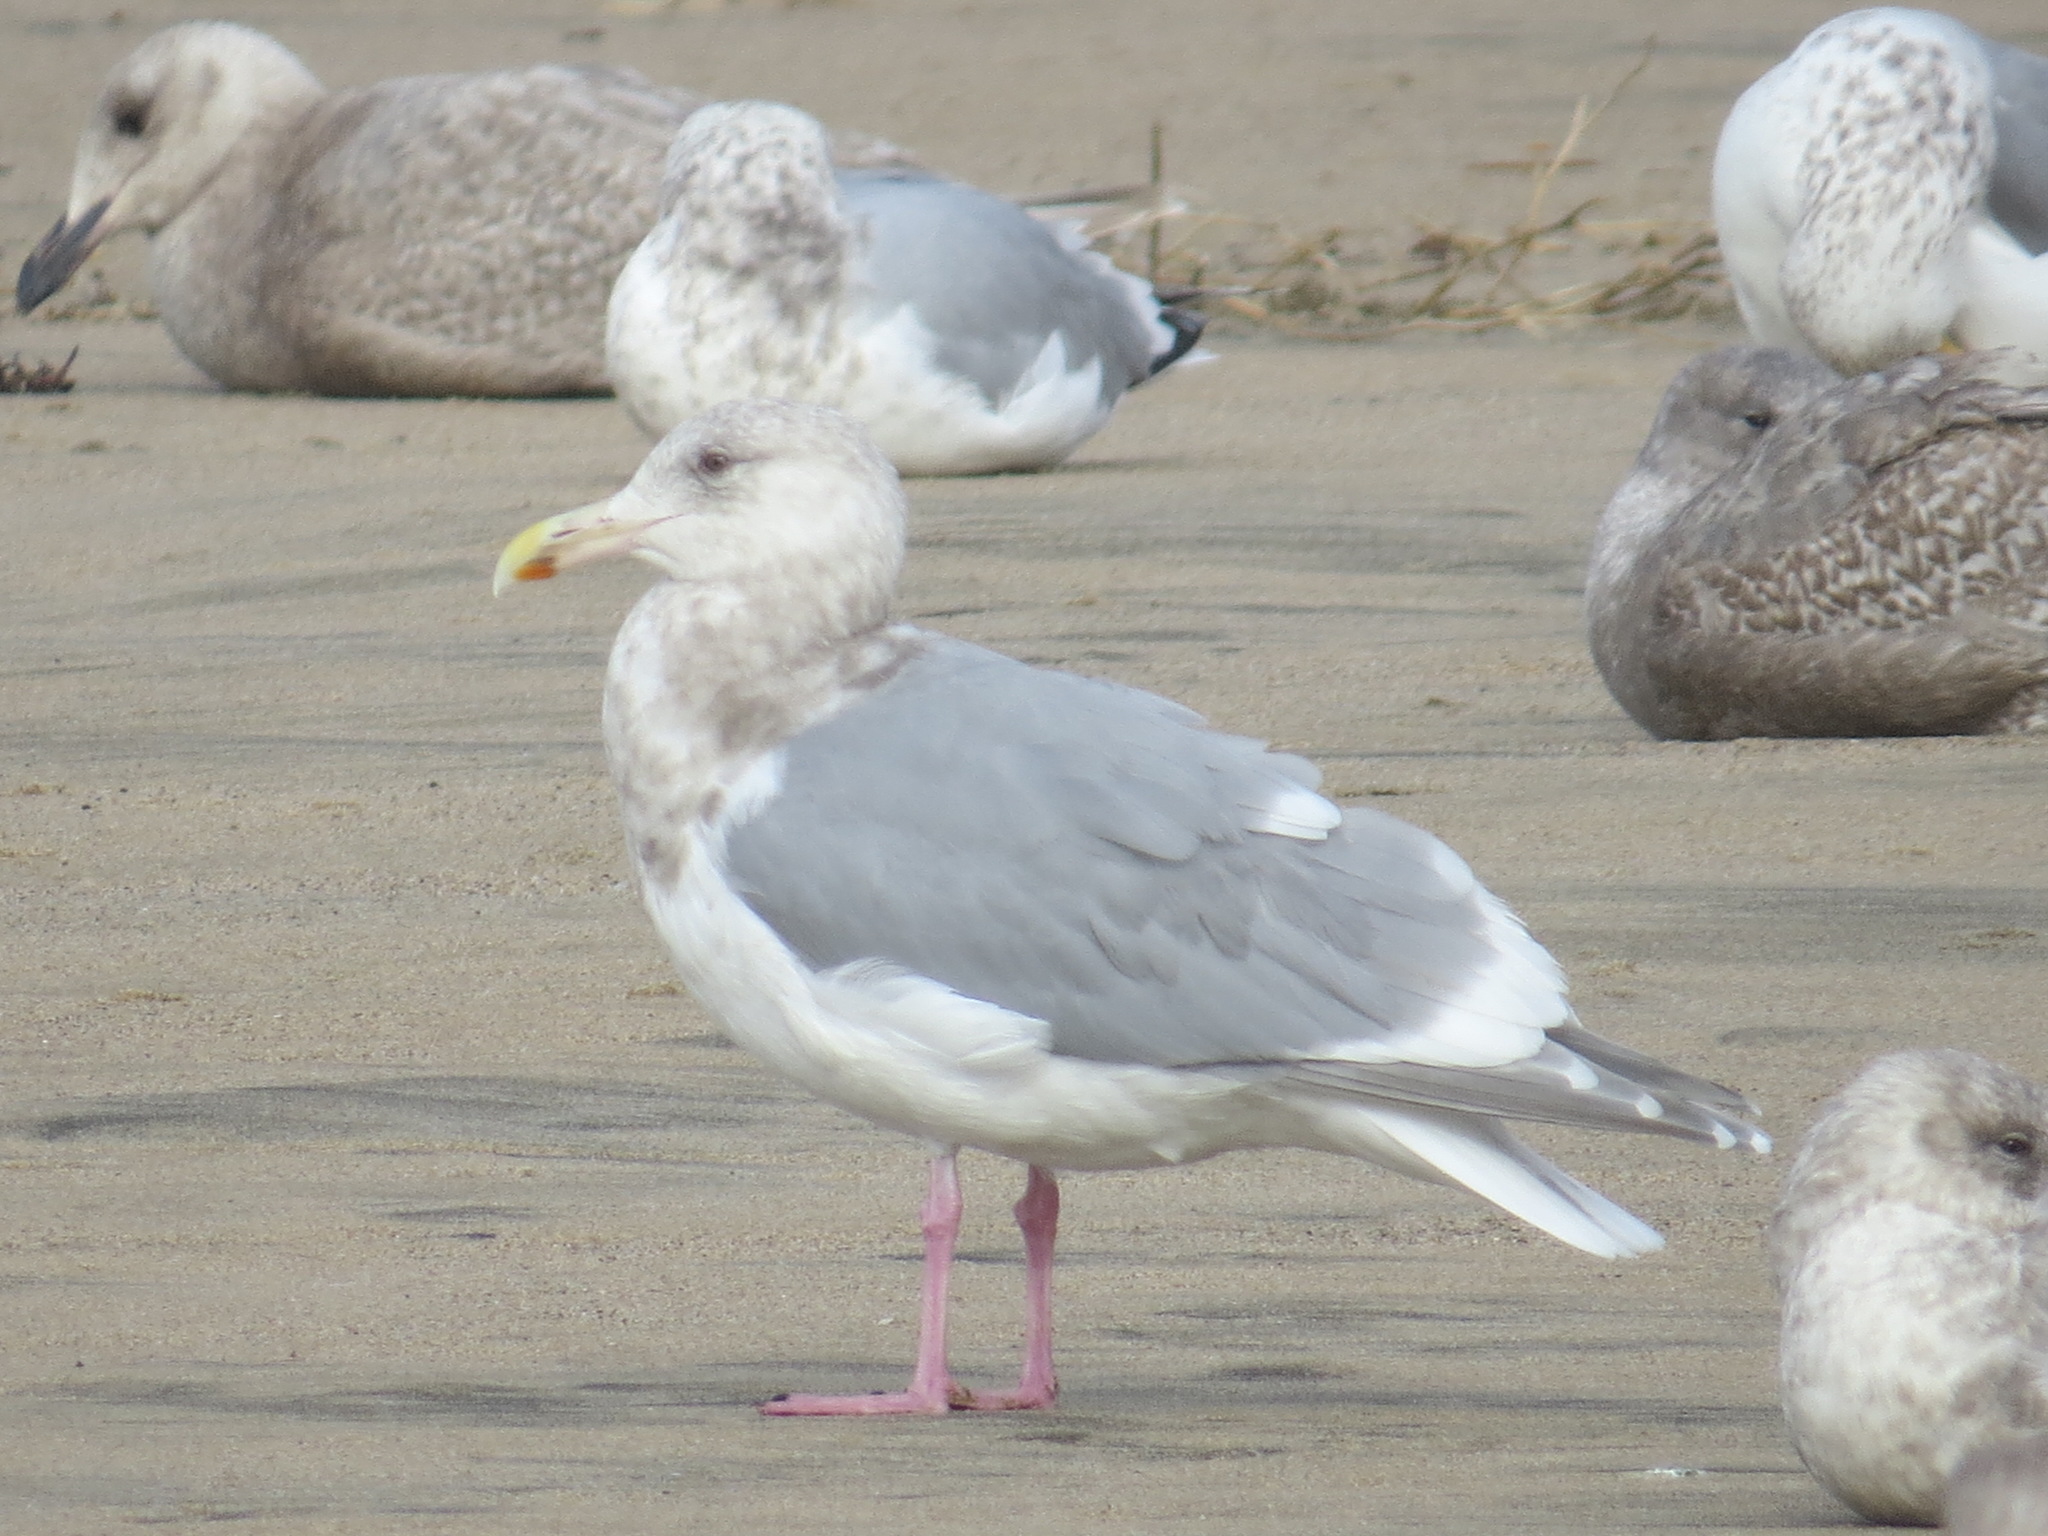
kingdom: Animalia
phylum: Chordata
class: Aves
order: Charadriiformes
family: Laridae
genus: Larus
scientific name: Larus glaucescens
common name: Glaucous-winged gull
